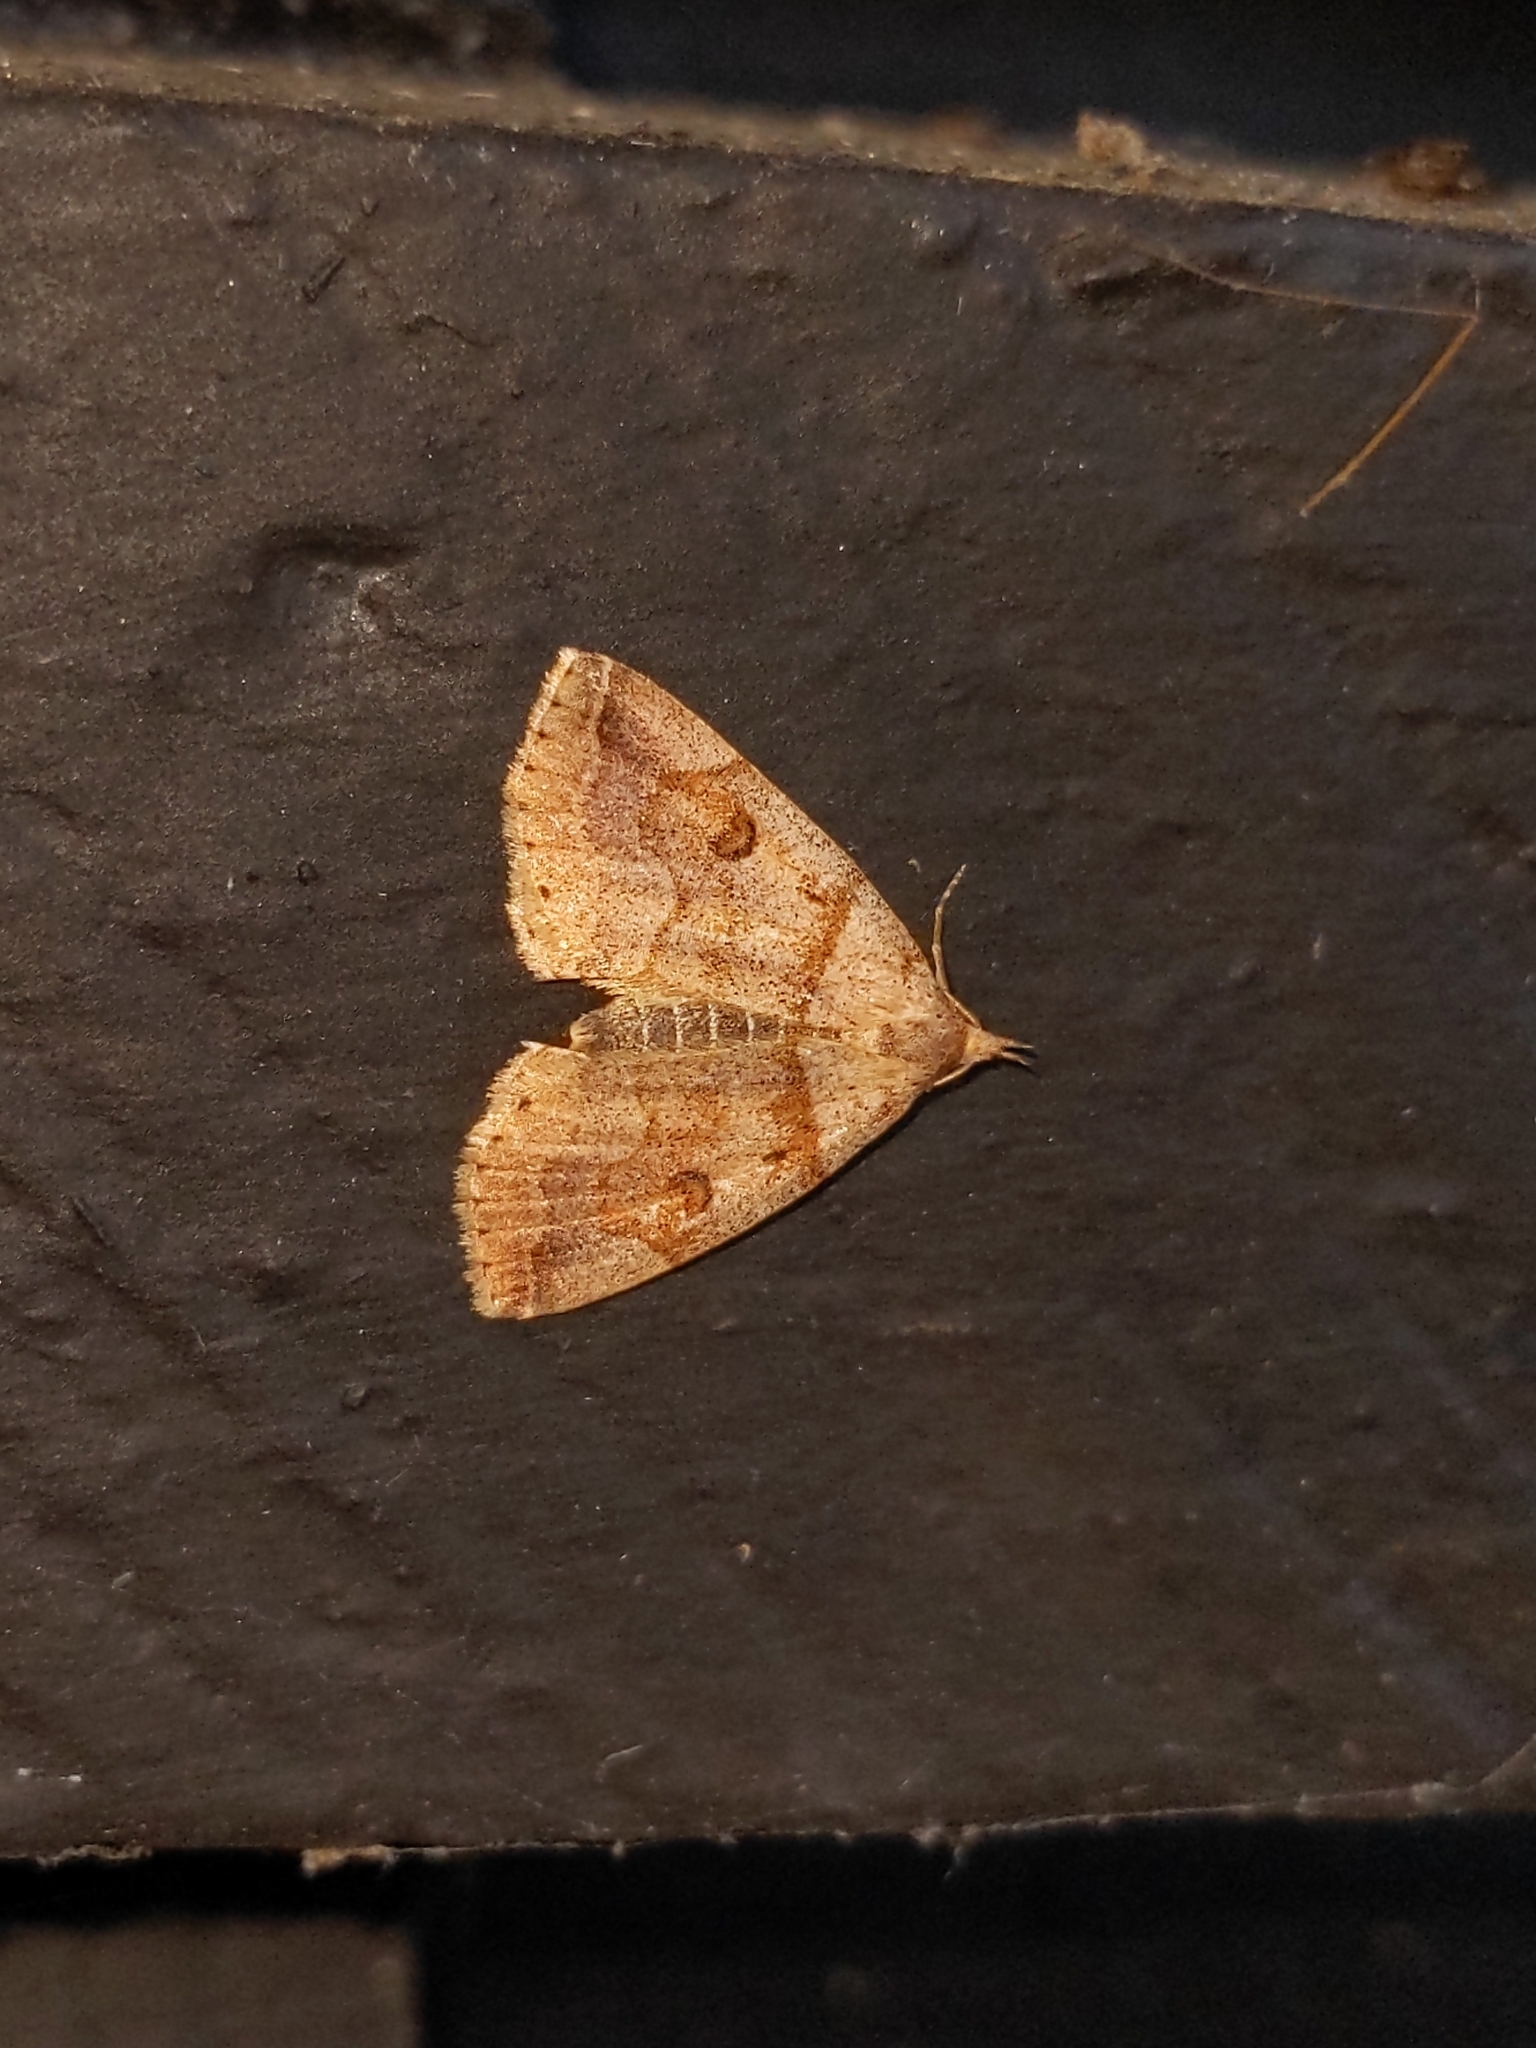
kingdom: Animalia
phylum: Arthropoda
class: Insecta
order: Lepidoptera
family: Erebidae
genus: Zanclognatha
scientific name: Zanclognatha laevigata
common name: Variable fan-foot
